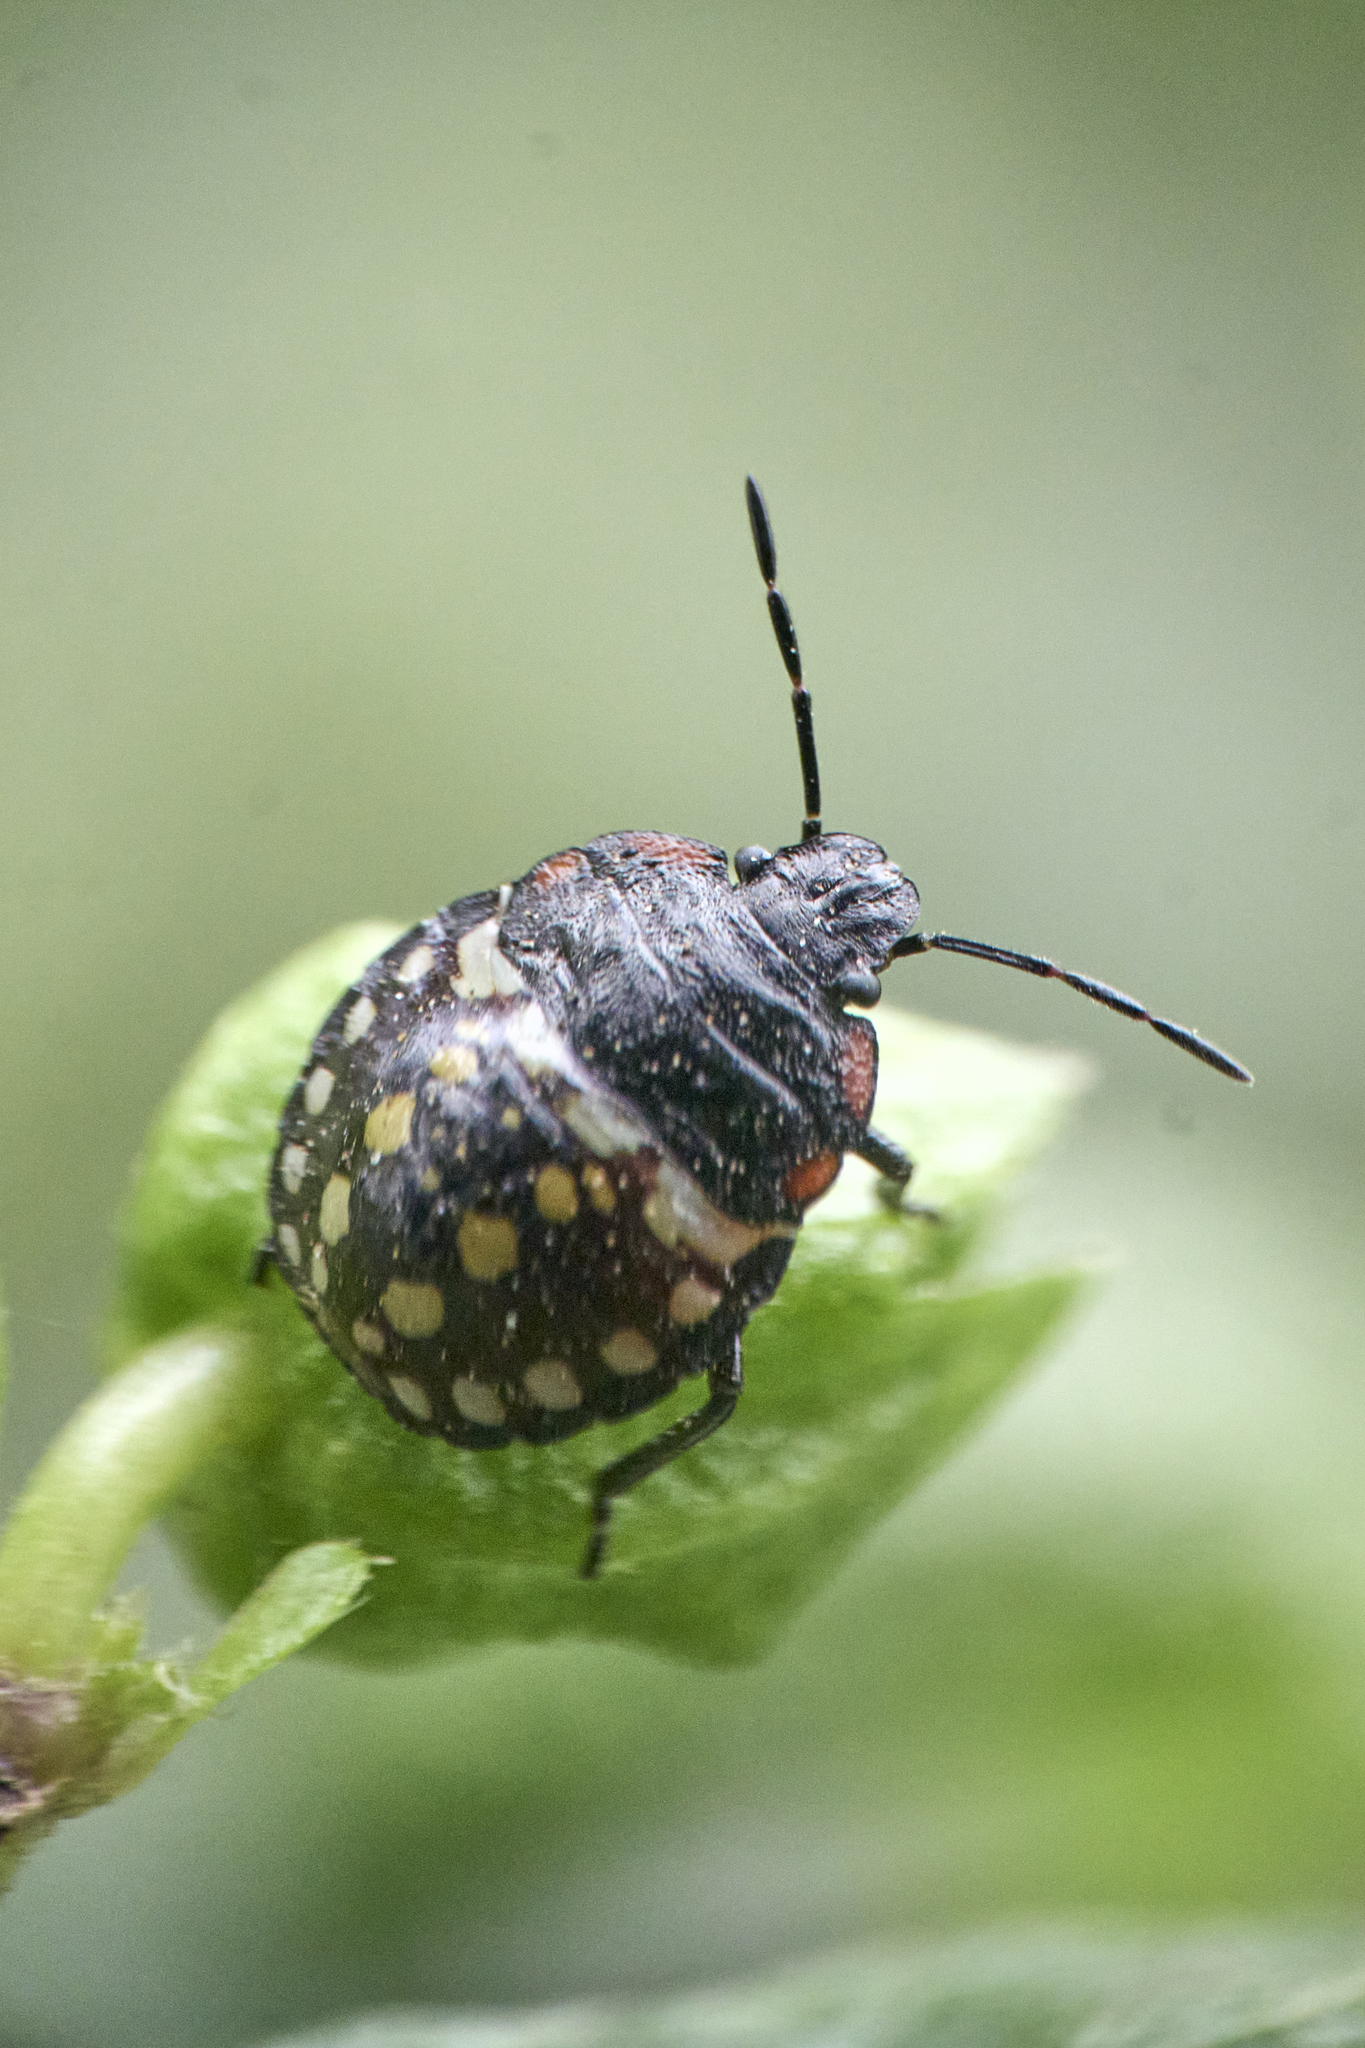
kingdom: Animalia
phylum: Arthropoda
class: Insecta
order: Hemiptera
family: Pentatomidae
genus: Nezara
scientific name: Nezara viridula
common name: Southern green stink bug
